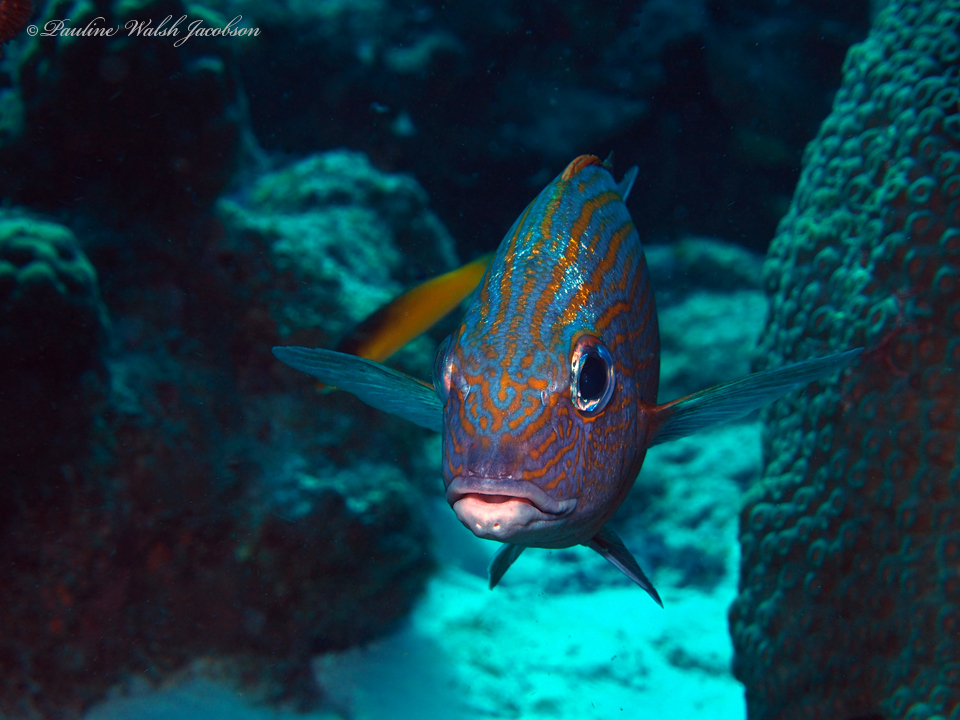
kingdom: Animalia
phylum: Chordata
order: Perciformes
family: Haemulidae
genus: Haemulon
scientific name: Haemulon carbonarium
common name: Caesar grunt
